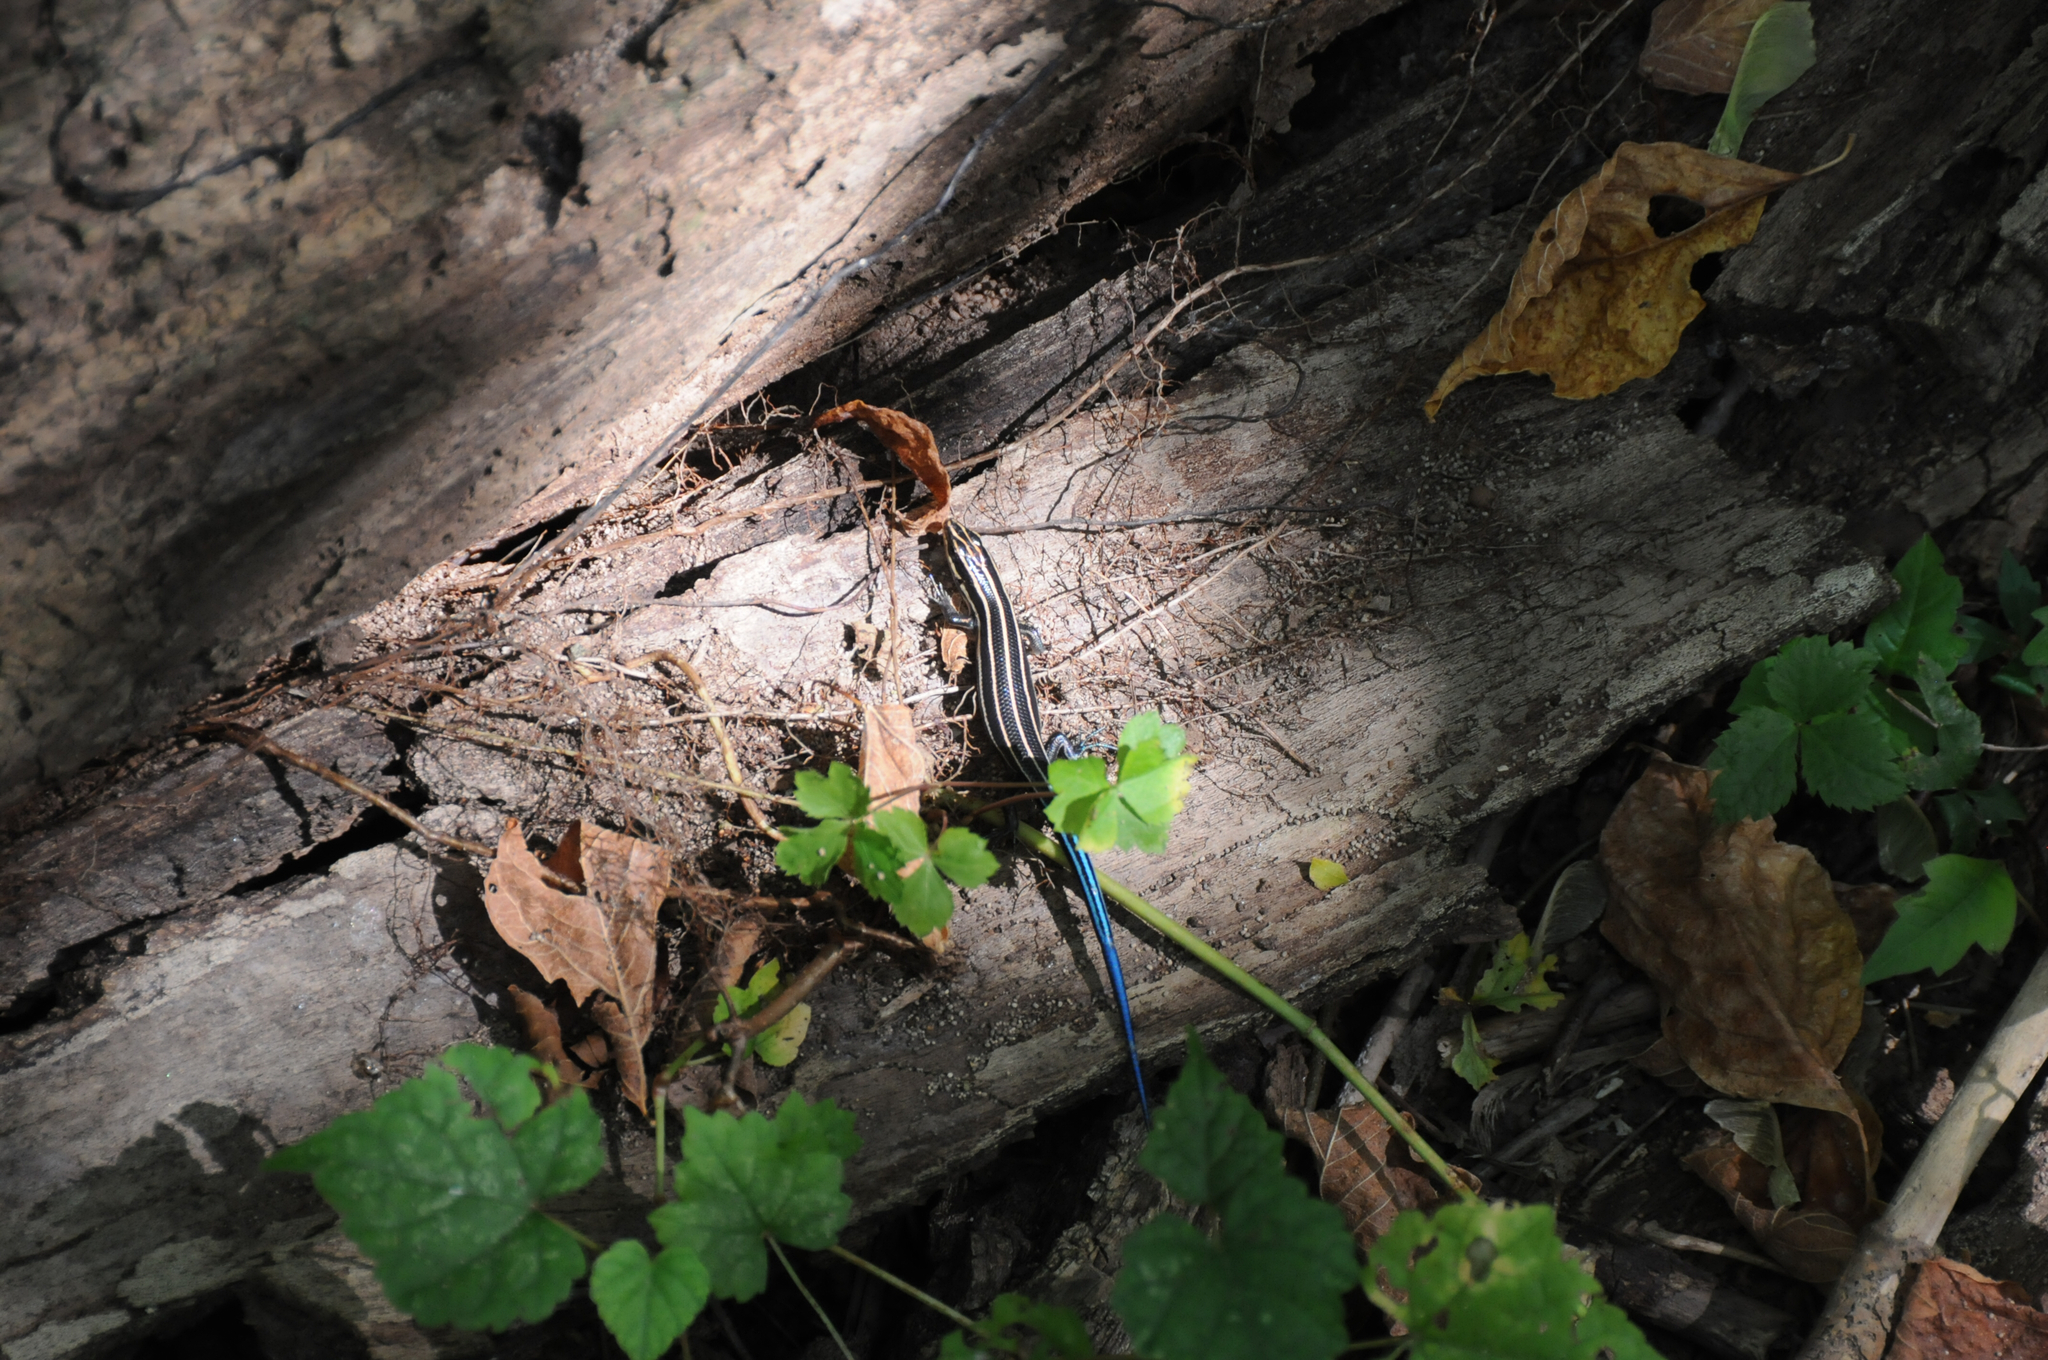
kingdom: Animalia
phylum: Chordata
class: Squamata
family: Scincidae
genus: Plestiodon
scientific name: Plestiodon fasciatus
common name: Five-lined skink
